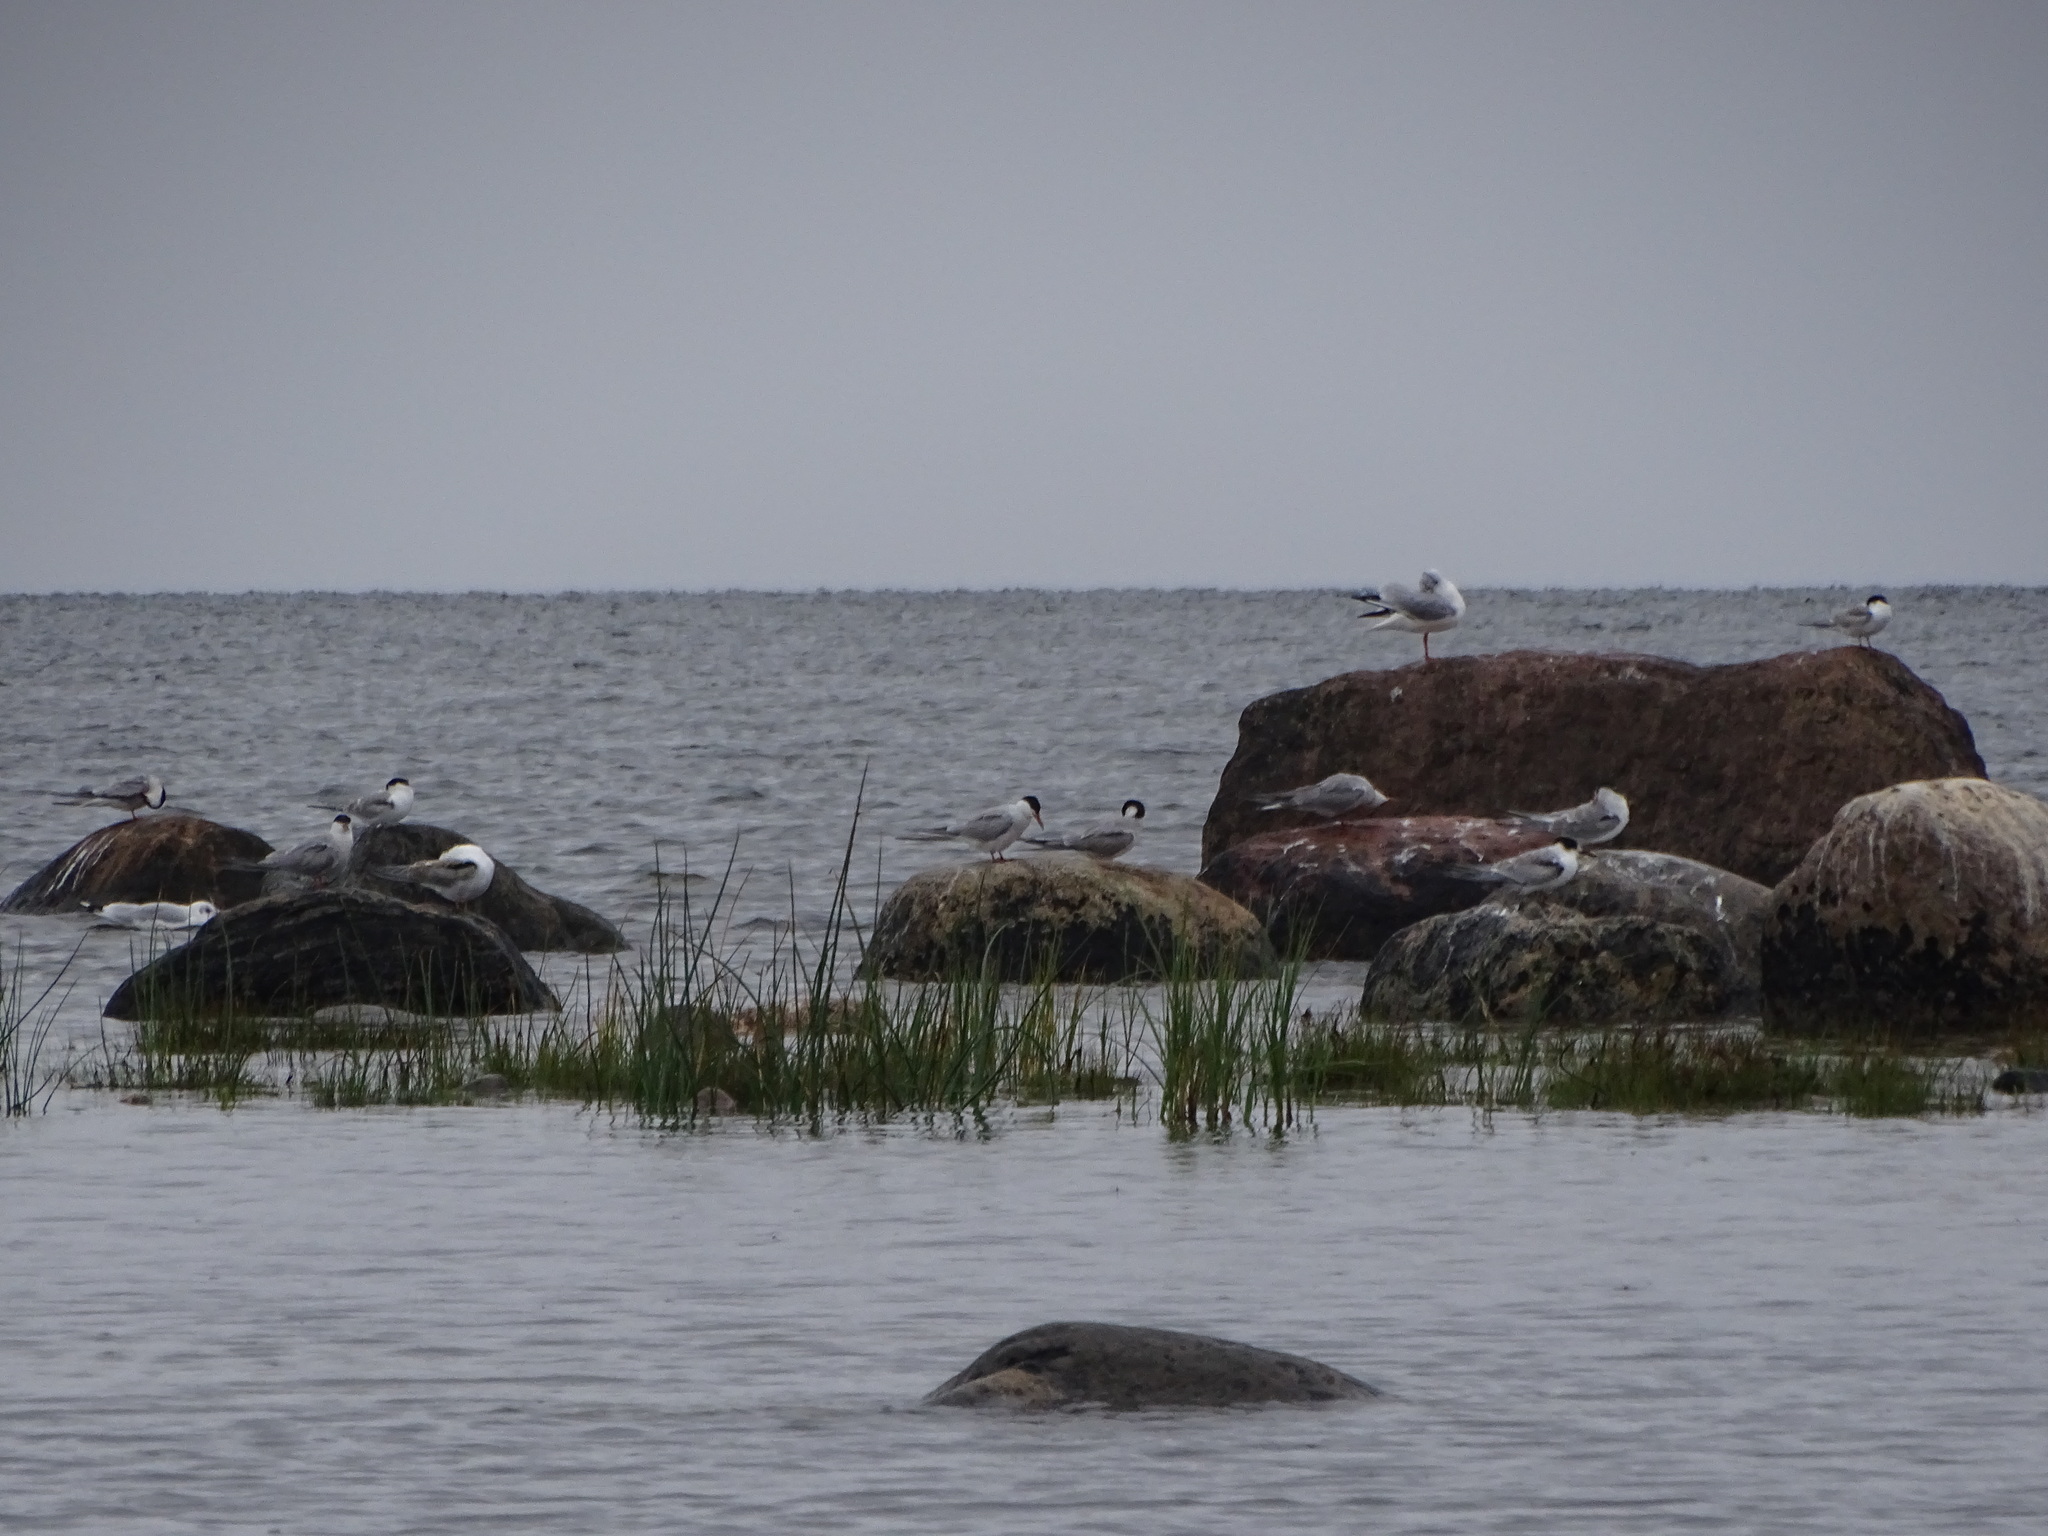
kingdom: Animalia
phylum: Chordata
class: Aves
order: Charadriiformes
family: Laridae
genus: Sterna
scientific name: Sterna hirundo
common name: Common tern
